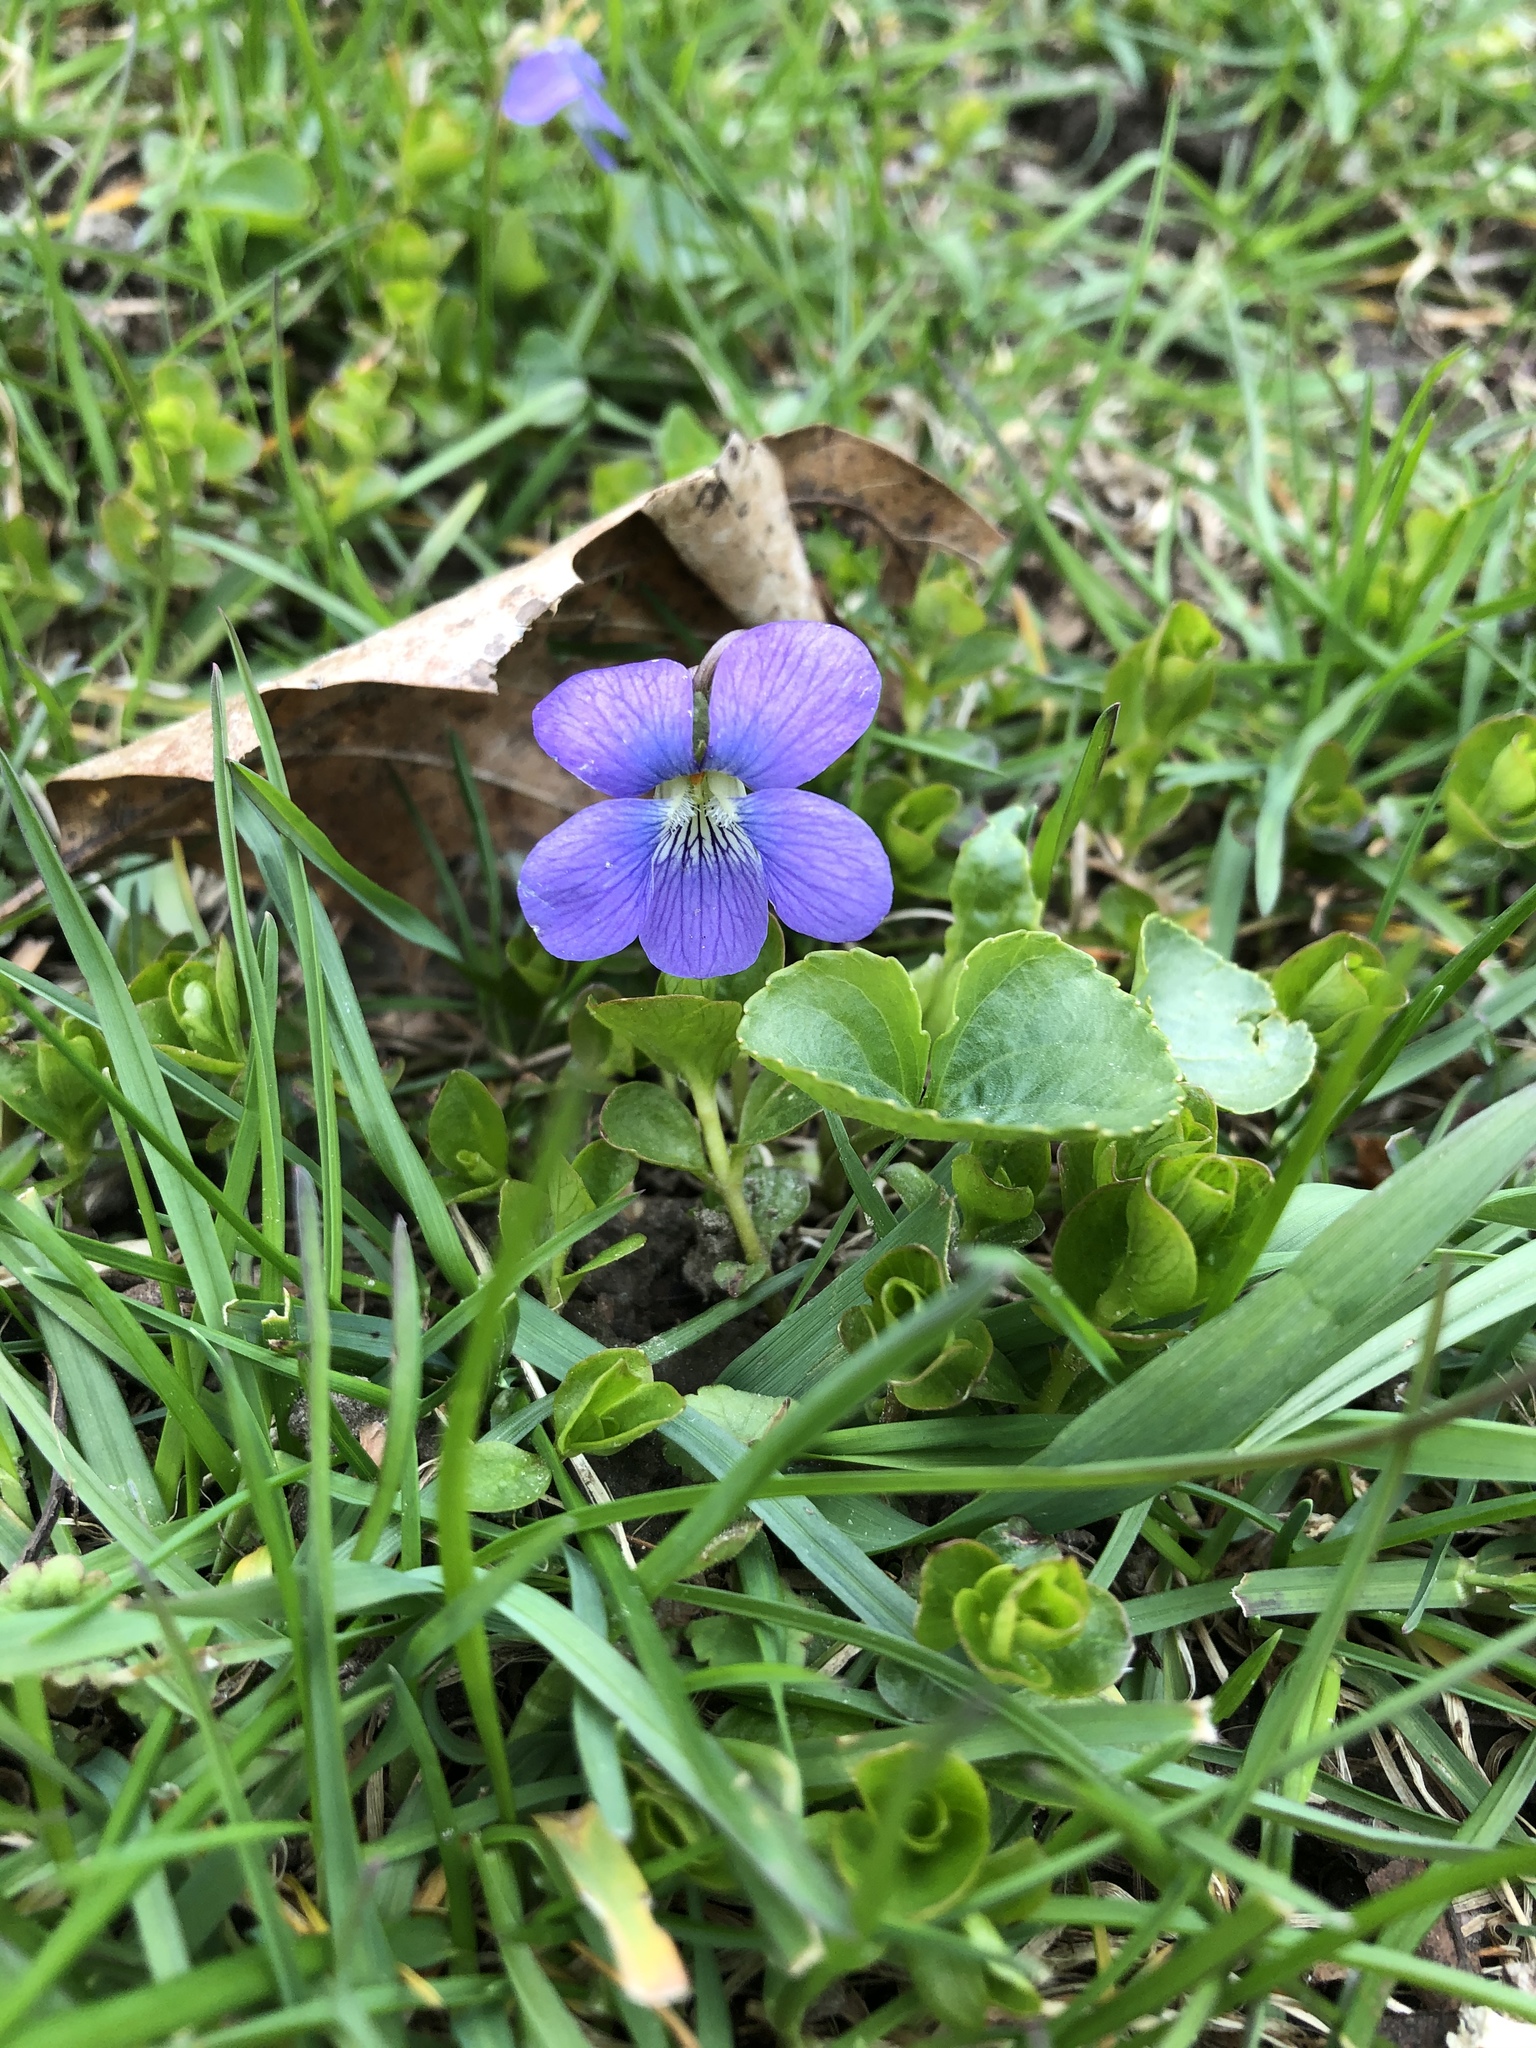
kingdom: Plantae
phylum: Tracheophyta
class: Magnoliopsida
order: Malpighiales
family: Violaceae
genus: Viola
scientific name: Viola sororia
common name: Dooryard violet
